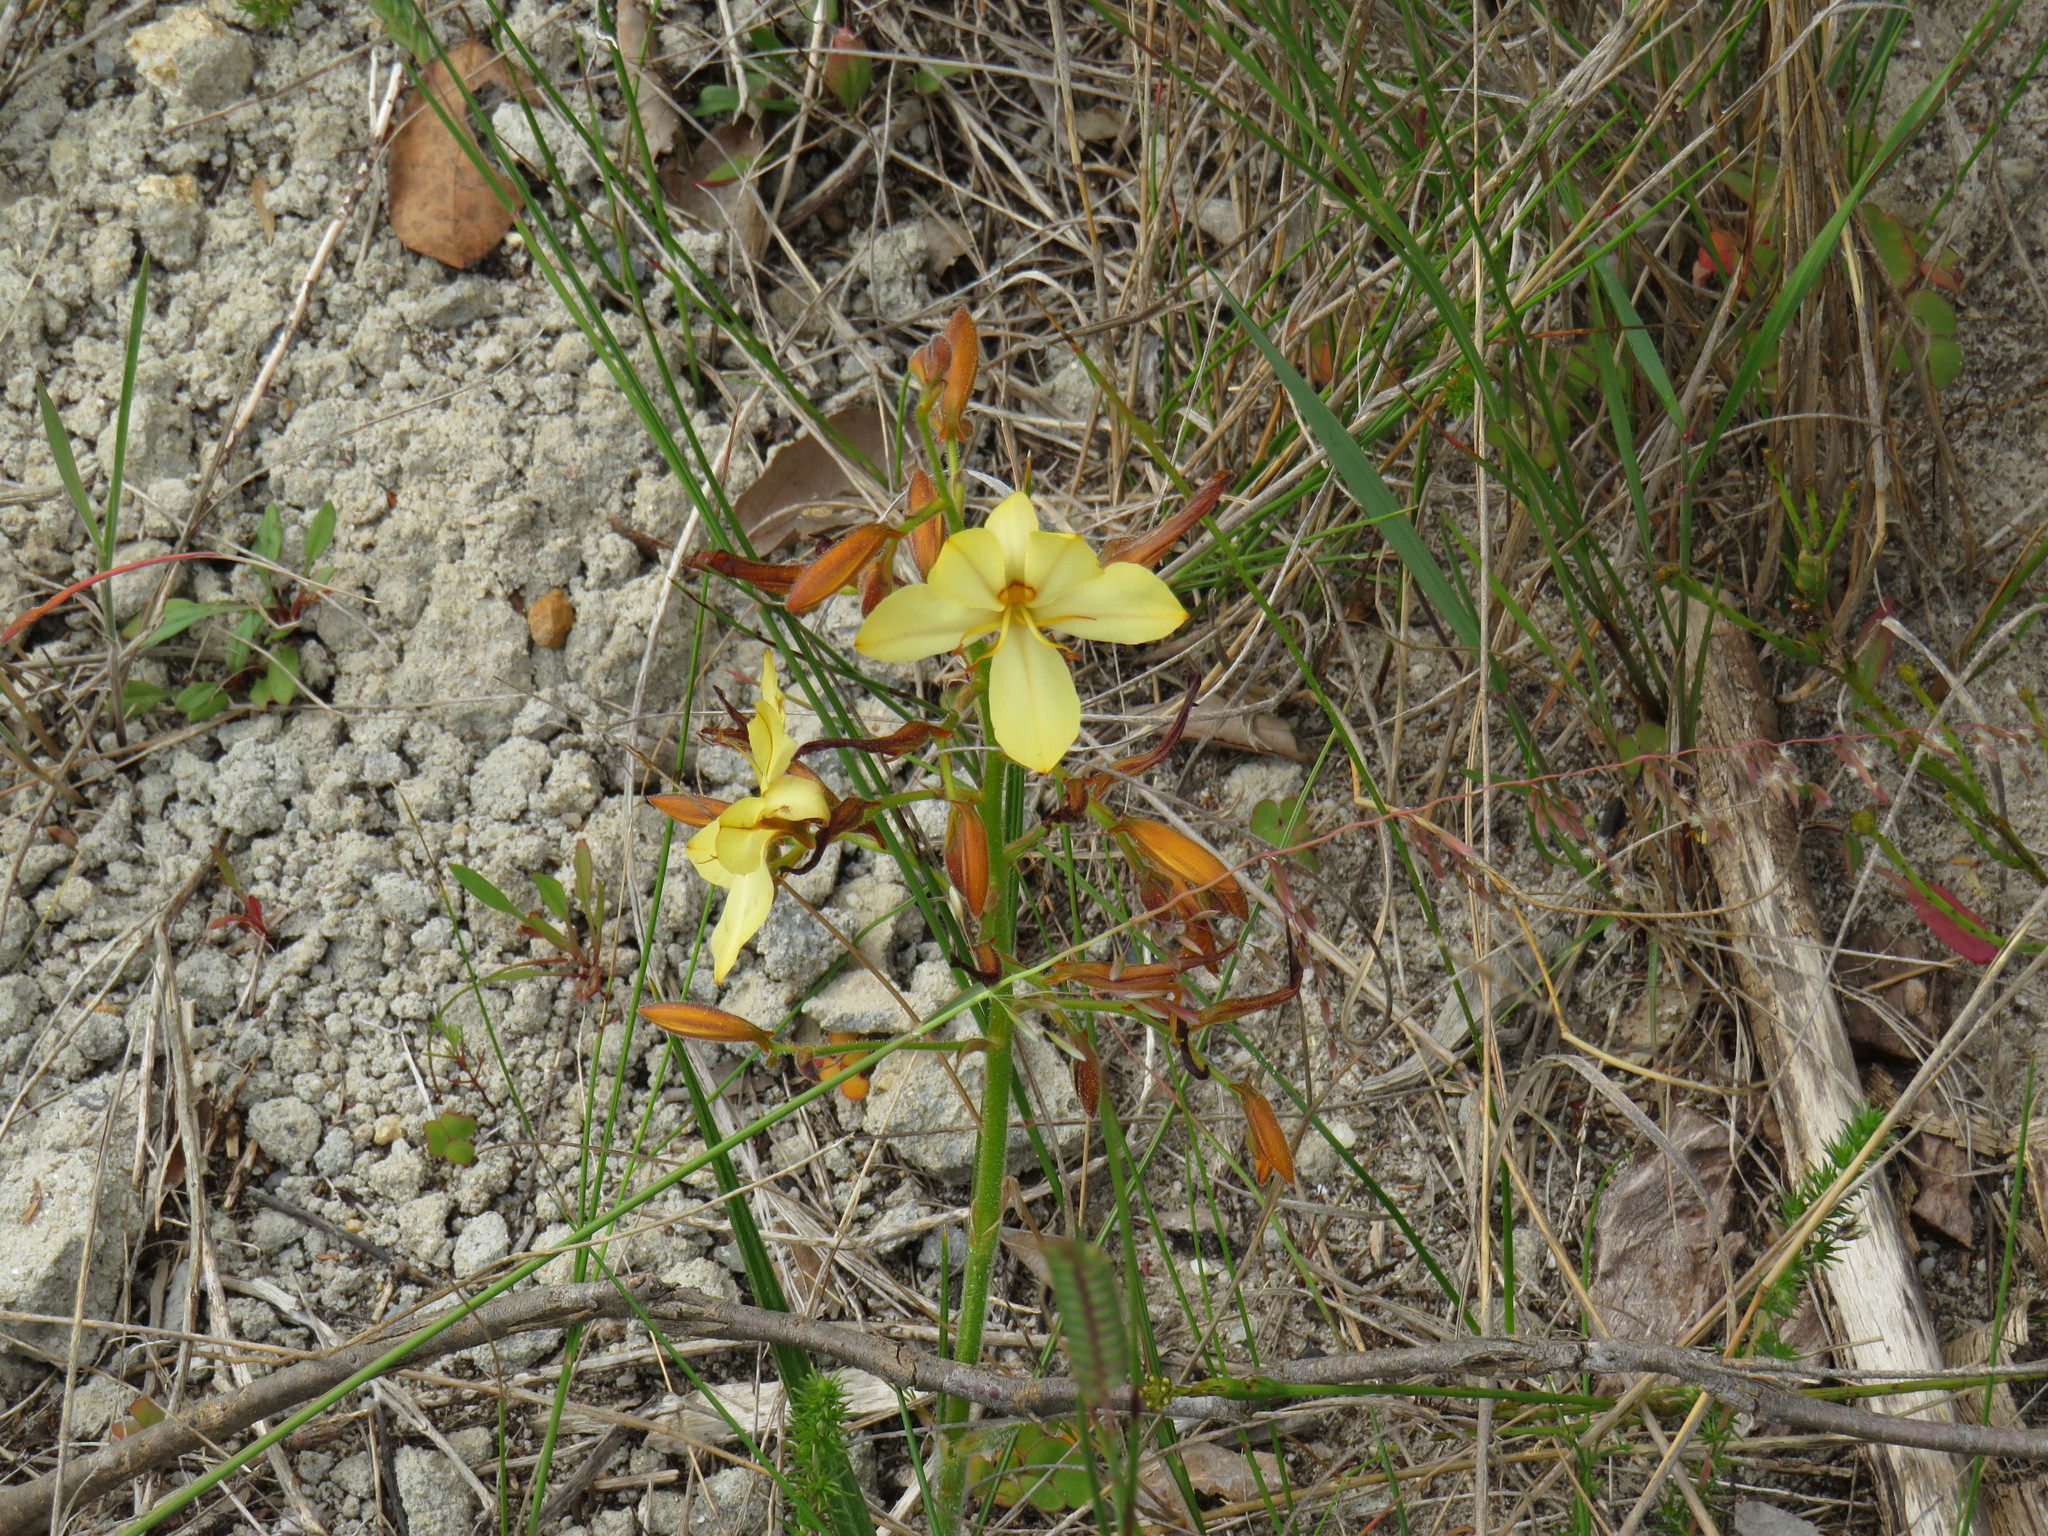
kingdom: Plantae
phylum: Tracheophyta
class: Liliopsida
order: Commelinales
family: Haemodoraceae
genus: Wachendorfia
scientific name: Wachendorfia paniculata
